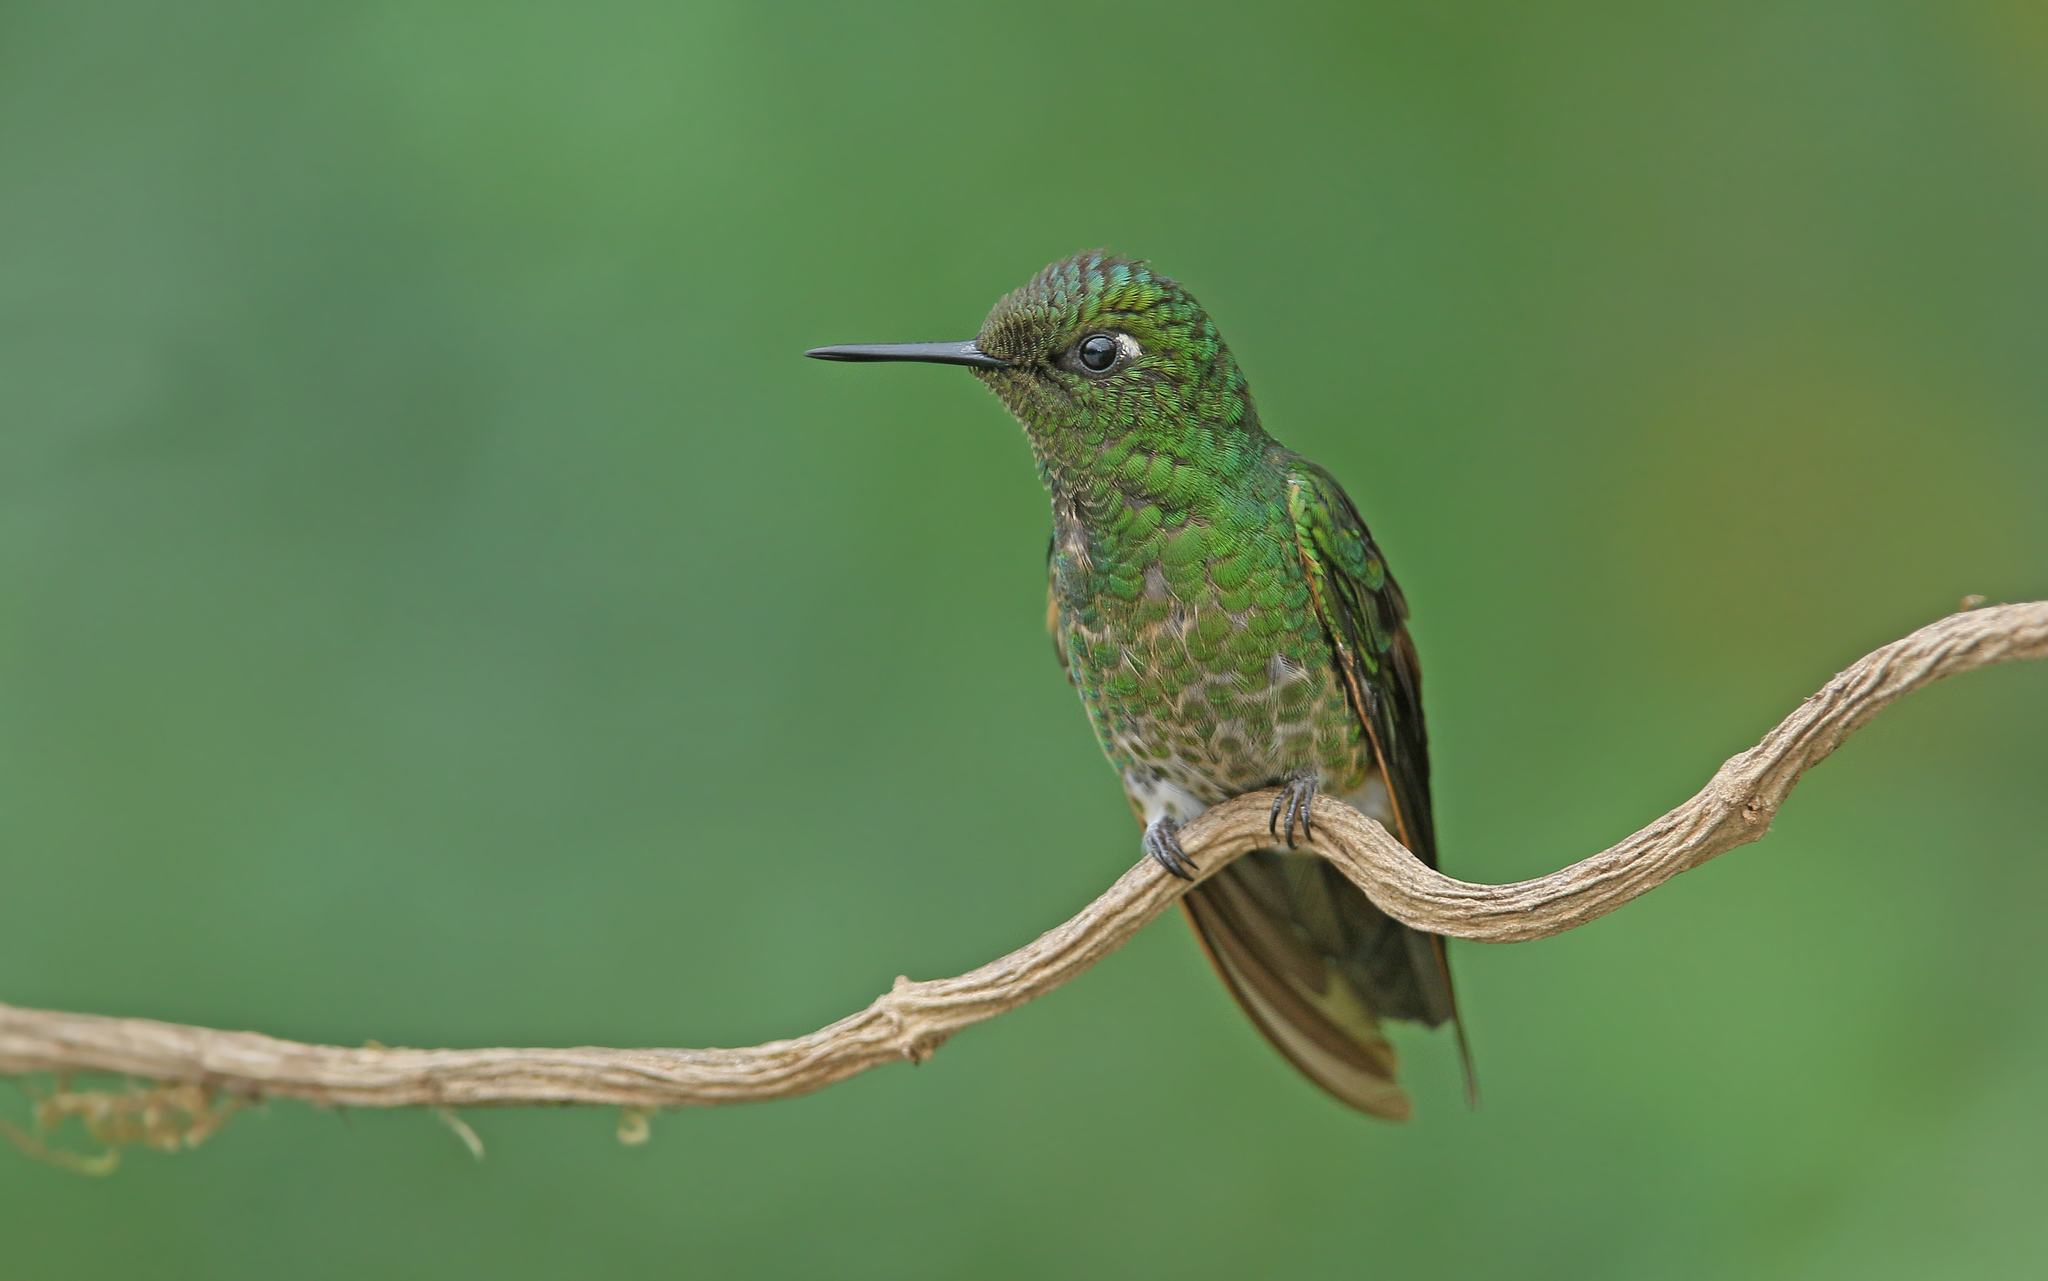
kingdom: Animalia
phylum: Chordata
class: Aves
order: Apodiformes
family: Trochilidae
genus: Boissonneaua
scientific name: Boissonneaua flavescens
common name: Buff-tailed coronet
